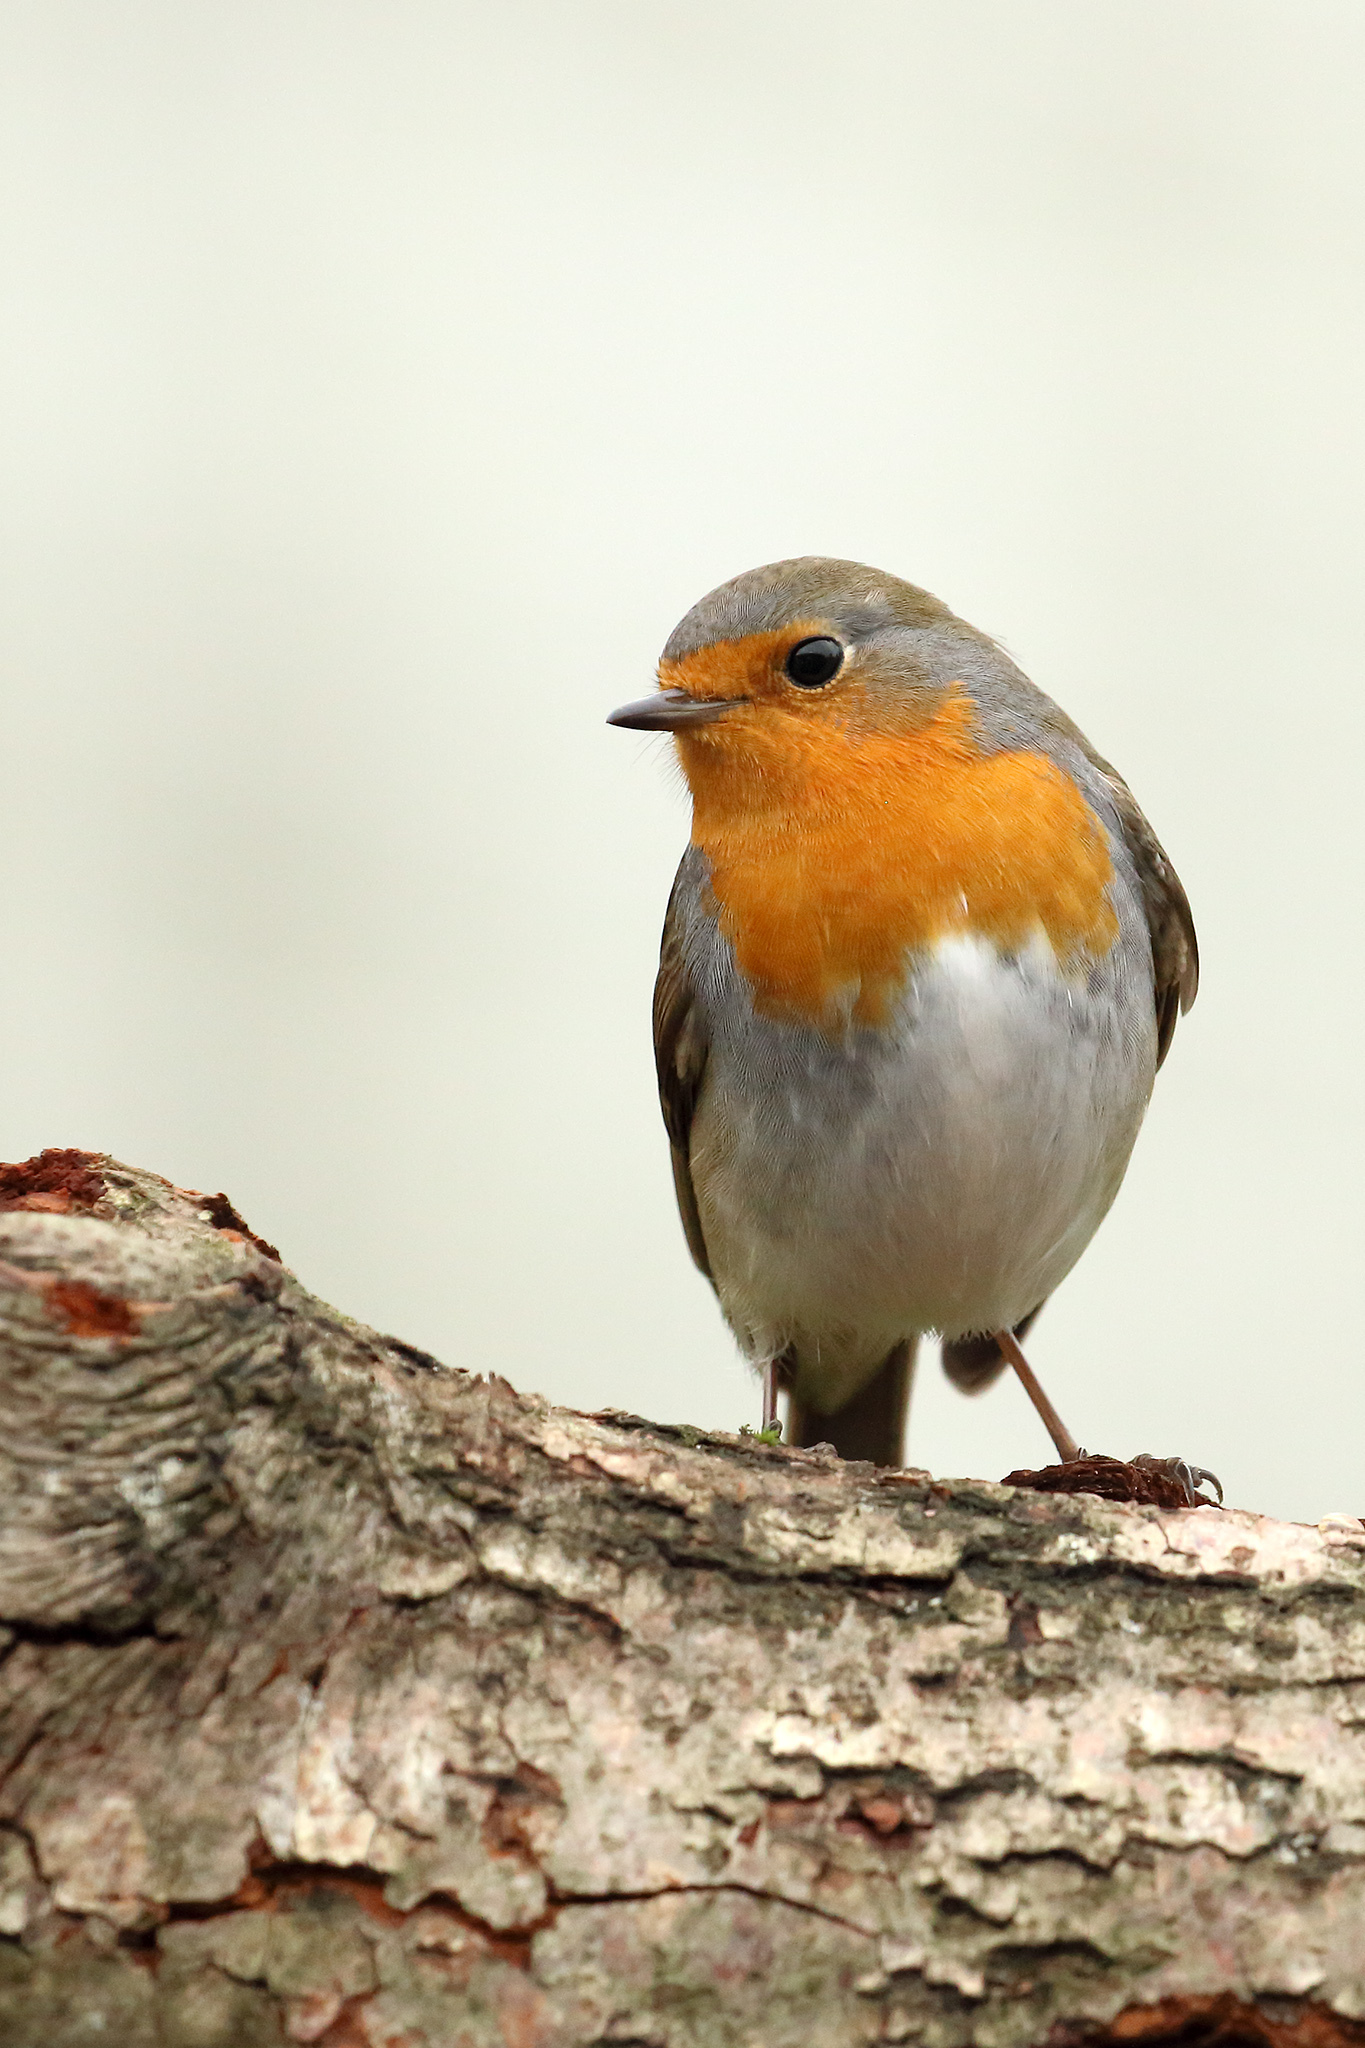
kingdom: Animalia
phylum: Chordata
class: Aves
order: Passeriformes
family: Muscicapidae
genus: Erithacus
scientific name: Erithacus rubecula
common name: European robin
